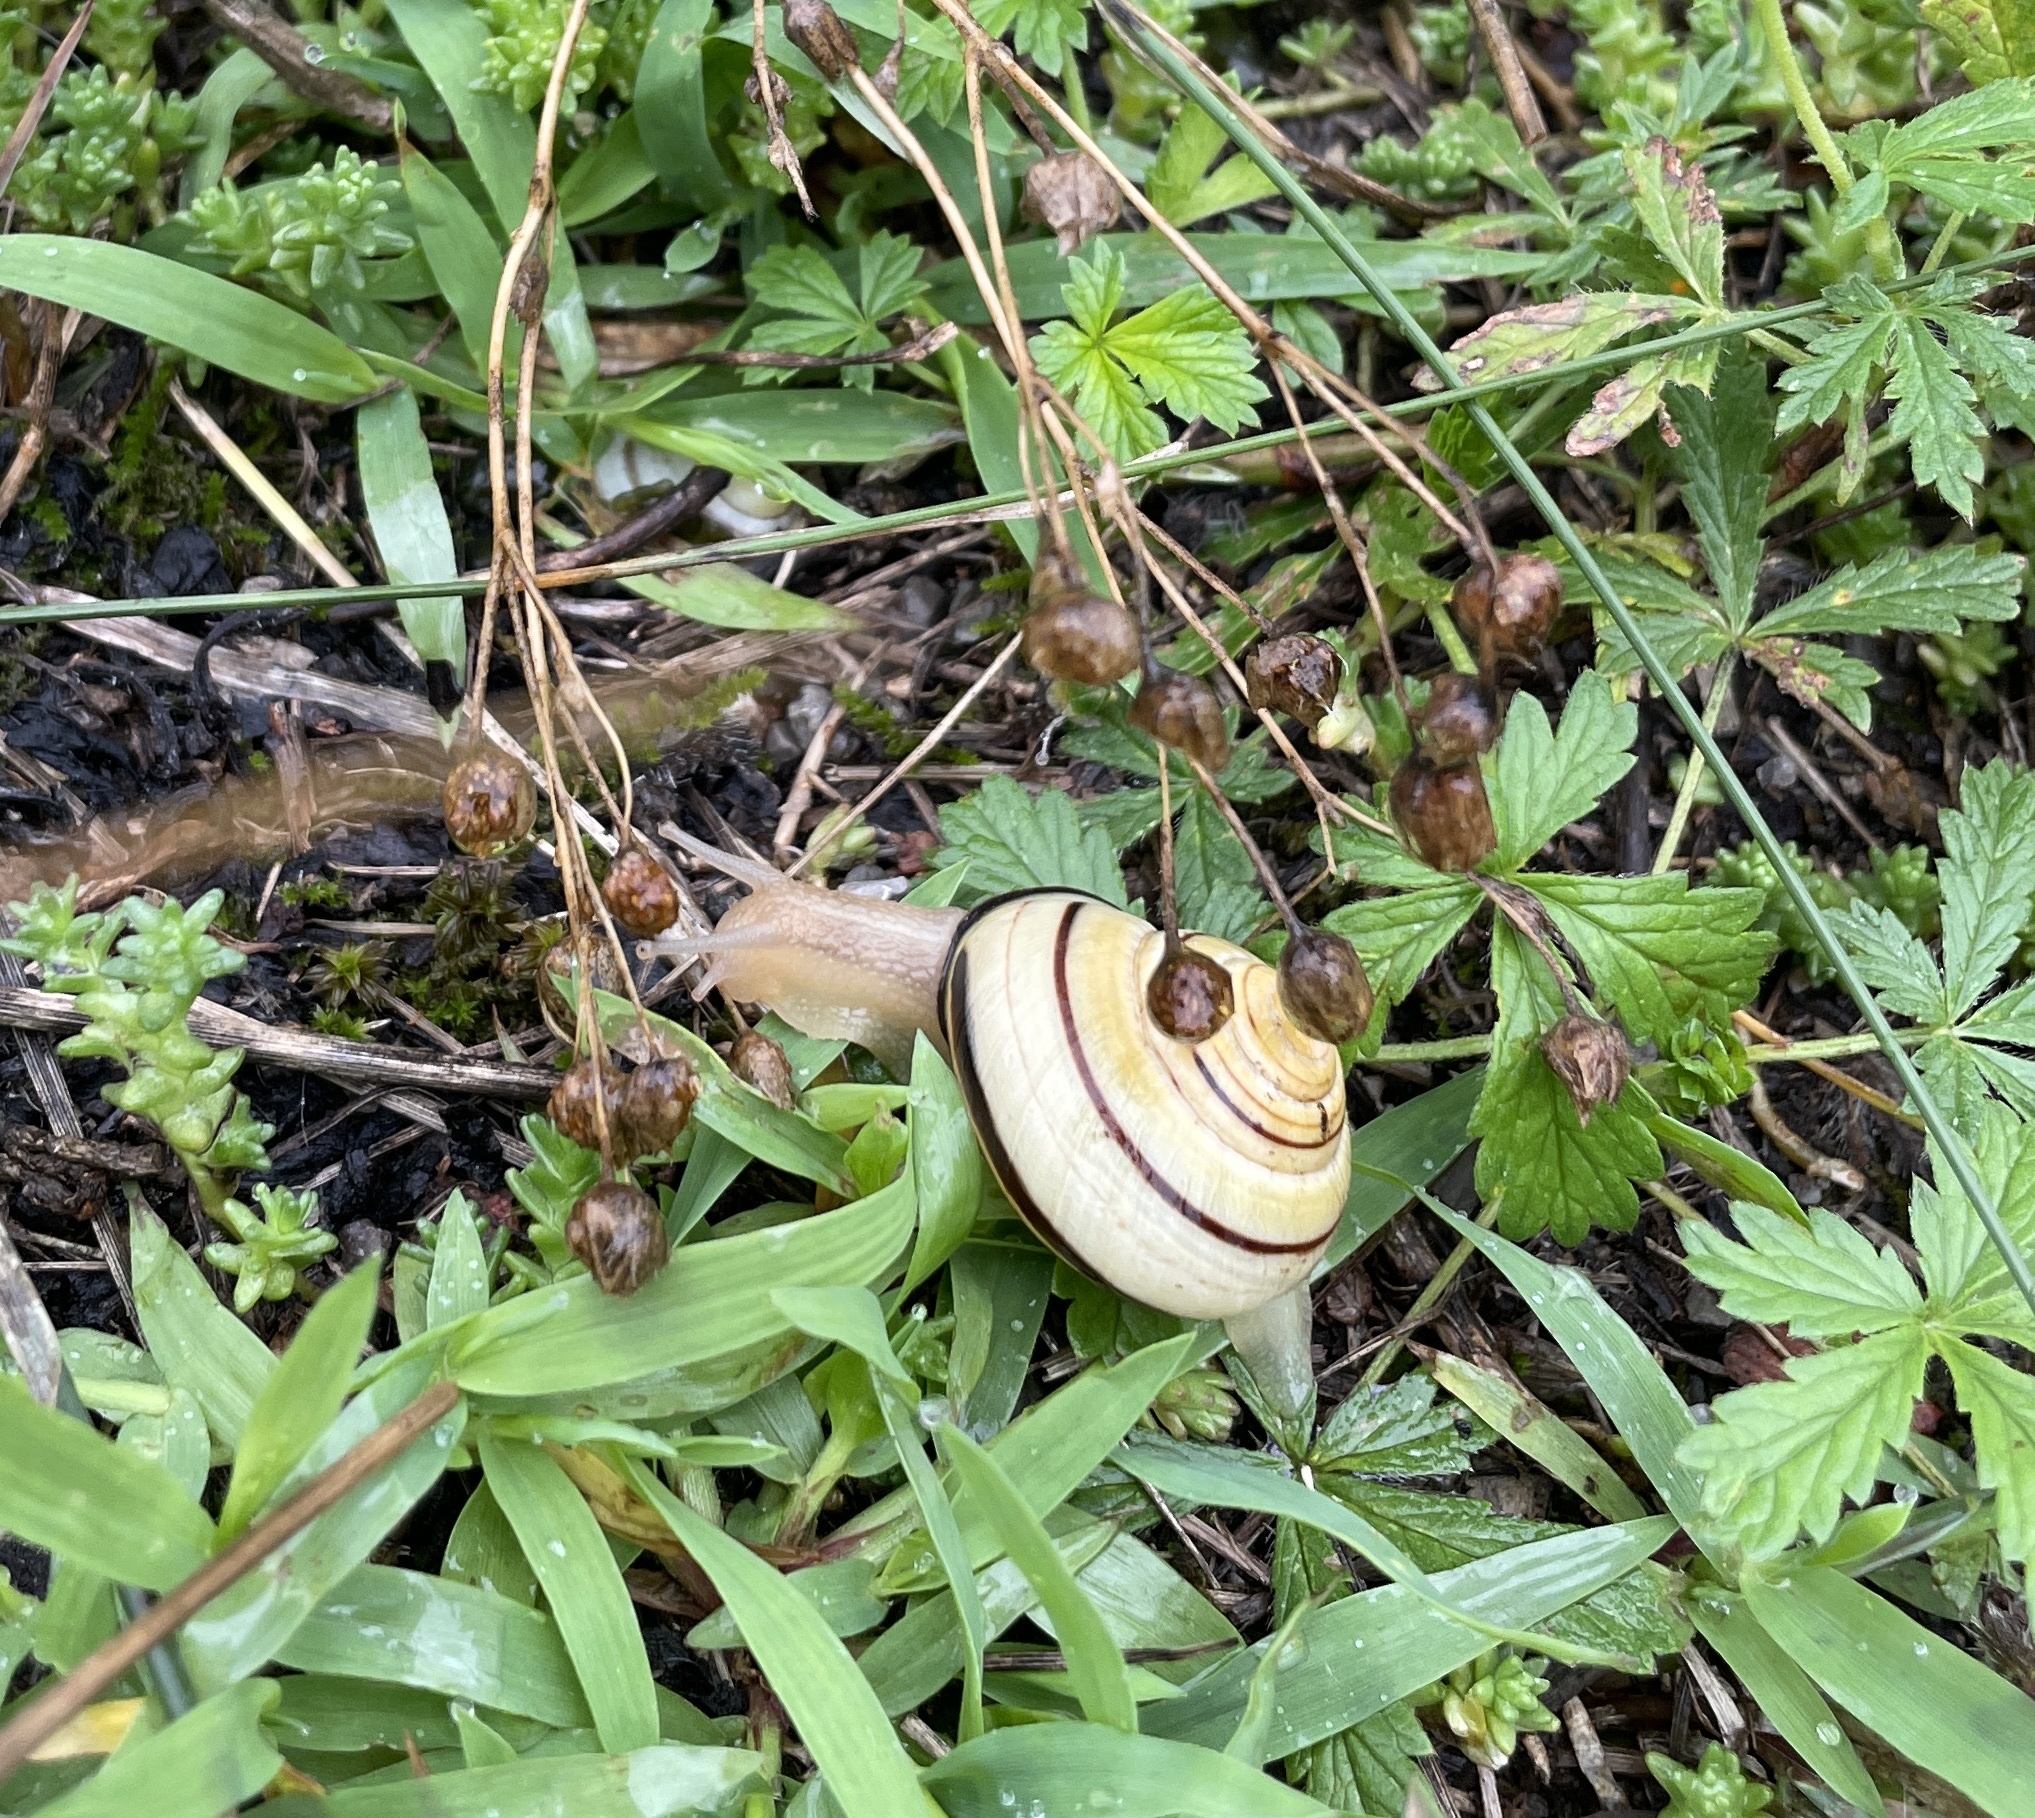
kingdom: Animalia
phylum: Mollusca
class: Gastropoda
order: Stylommatophora
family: Helicidae
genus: Cepaea
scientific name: Cepaea nemoralis
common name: Grovesnail
